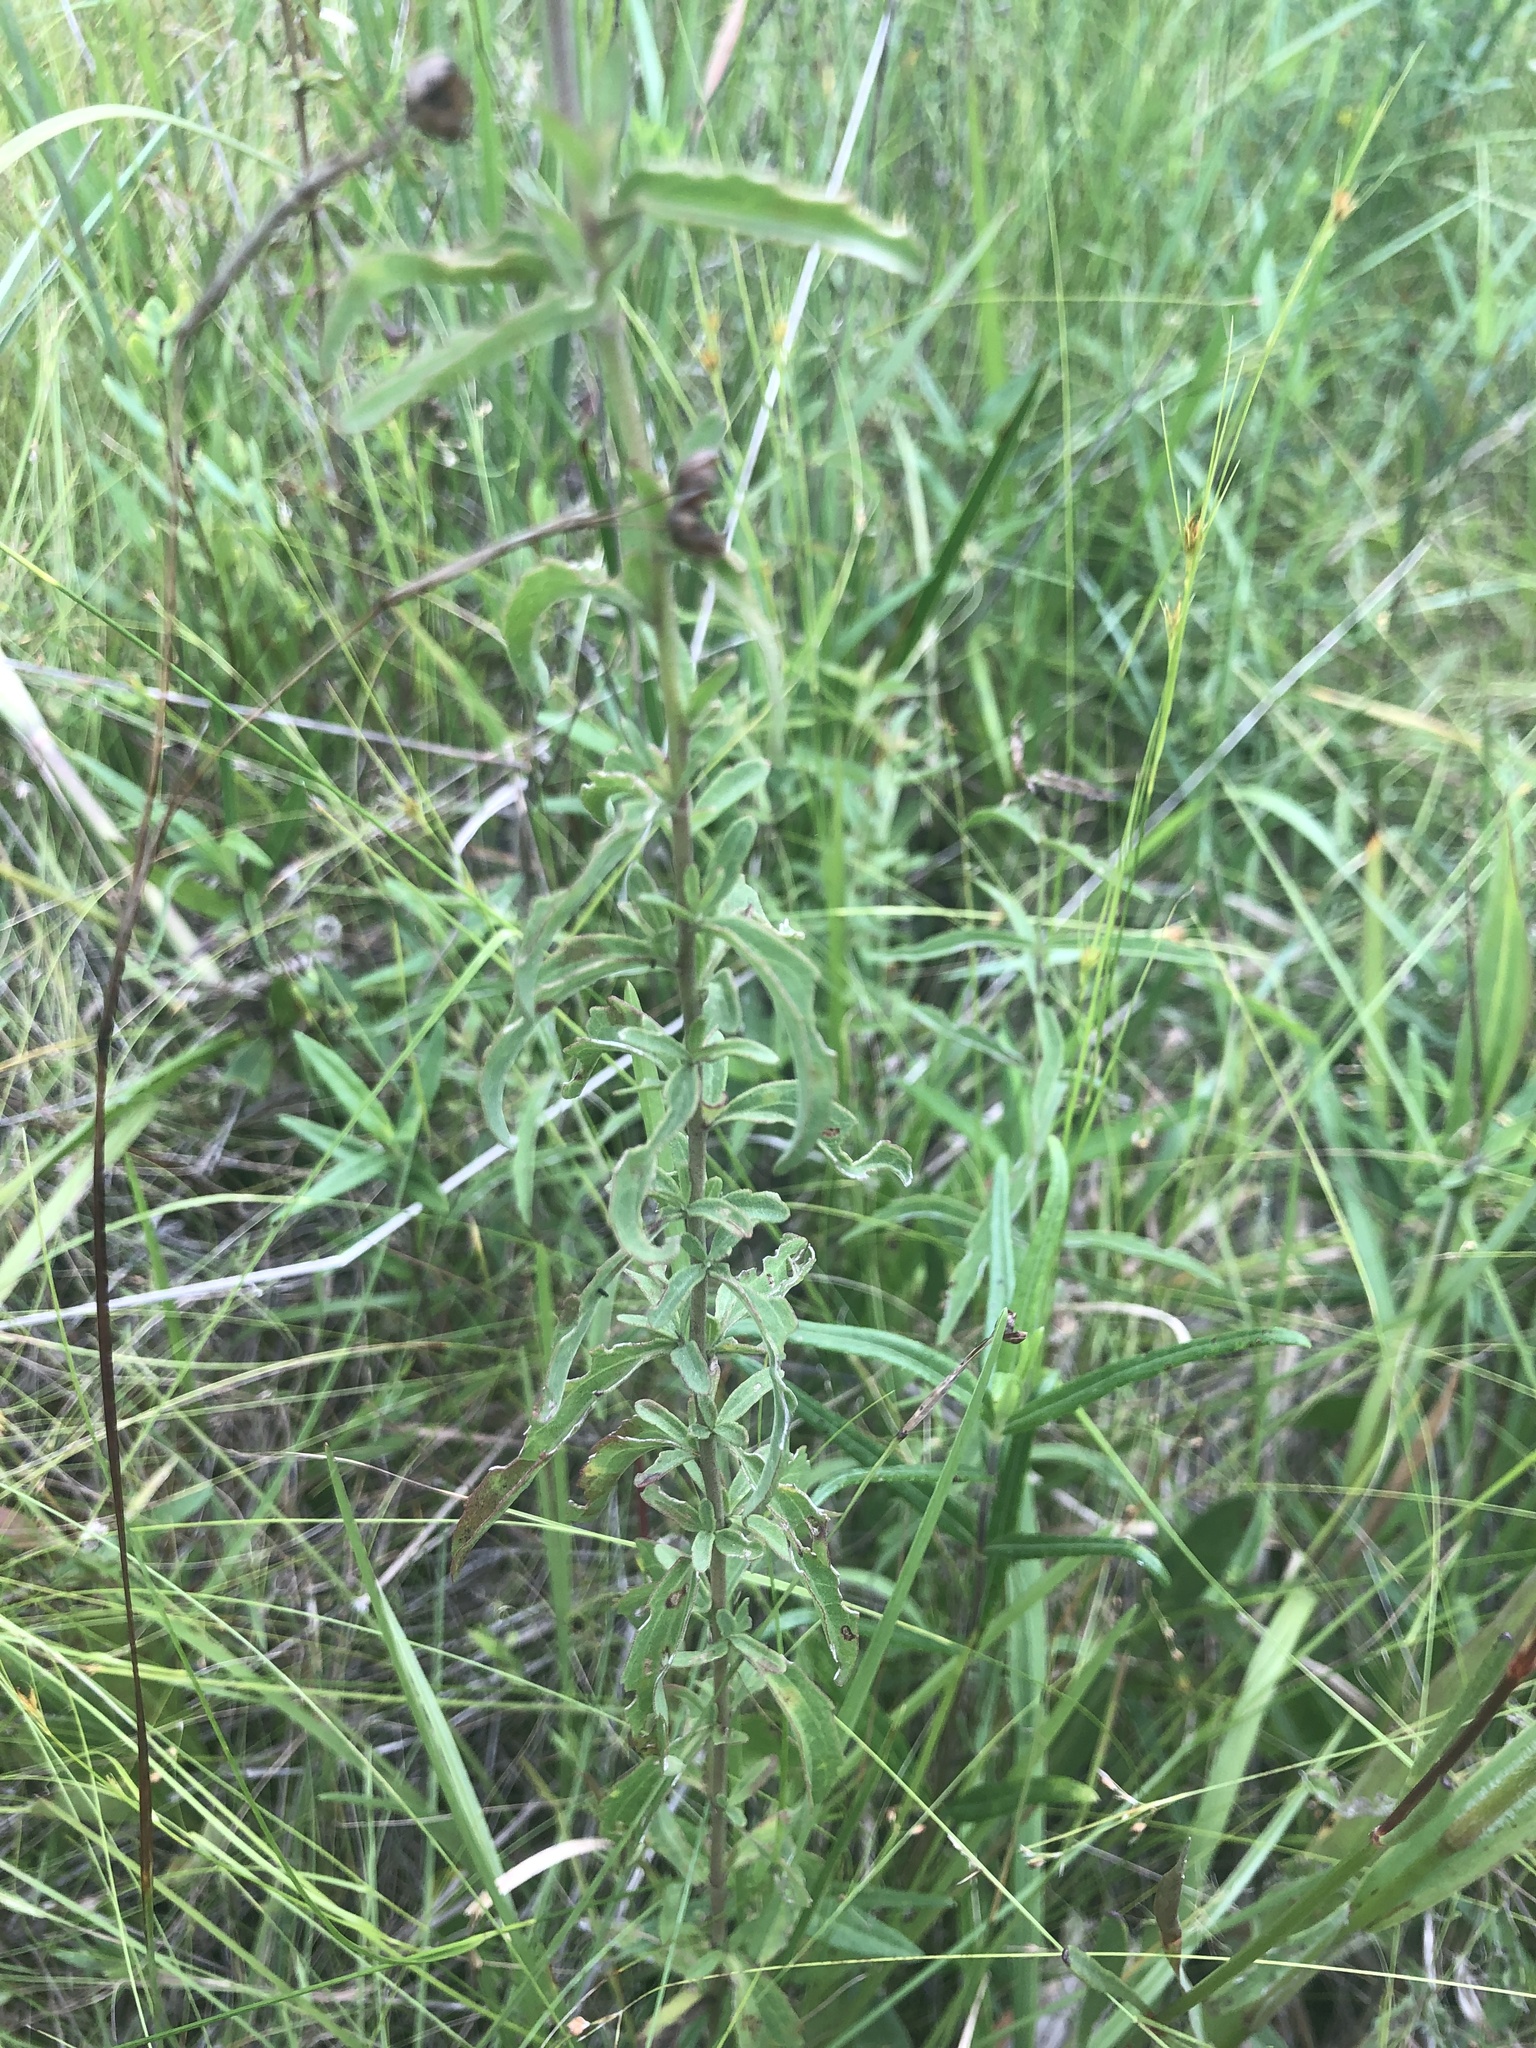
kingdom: Plantae
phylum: Tracheophyta
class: Magnoliopsida
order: Asterales
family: Asteraceae
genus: Eupatorium
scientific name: Eupatorium mohrii
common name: Mohr's thoroughwort
